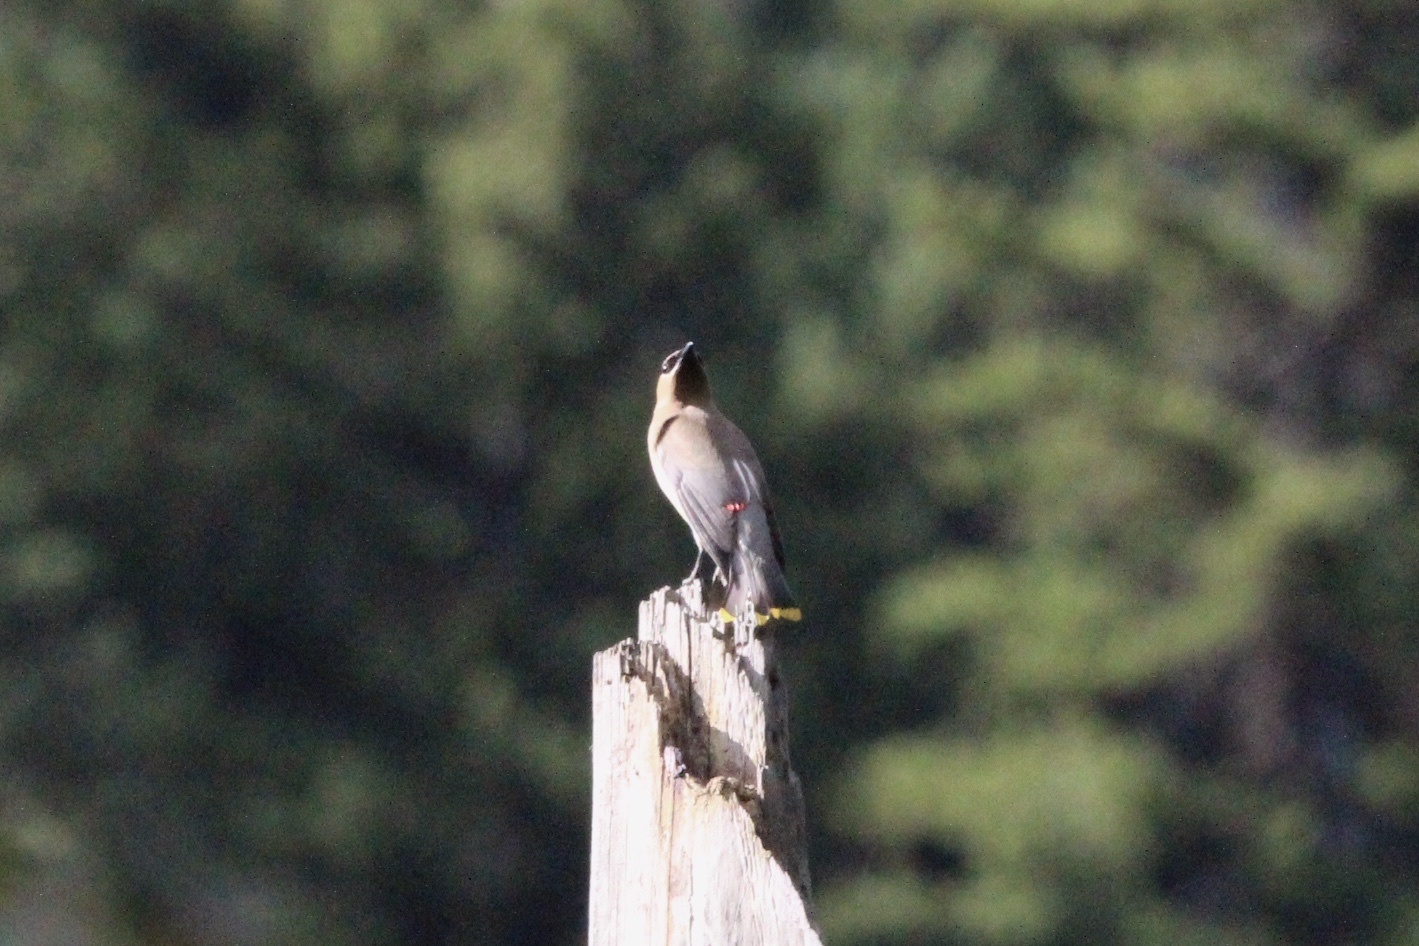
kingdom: Animalia
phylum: Chordata
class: Aves
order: Passeriformes
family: Bombycillidae
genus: Bombycilla
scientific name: Bombycilla cedrorum
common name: Cedar waxwing
